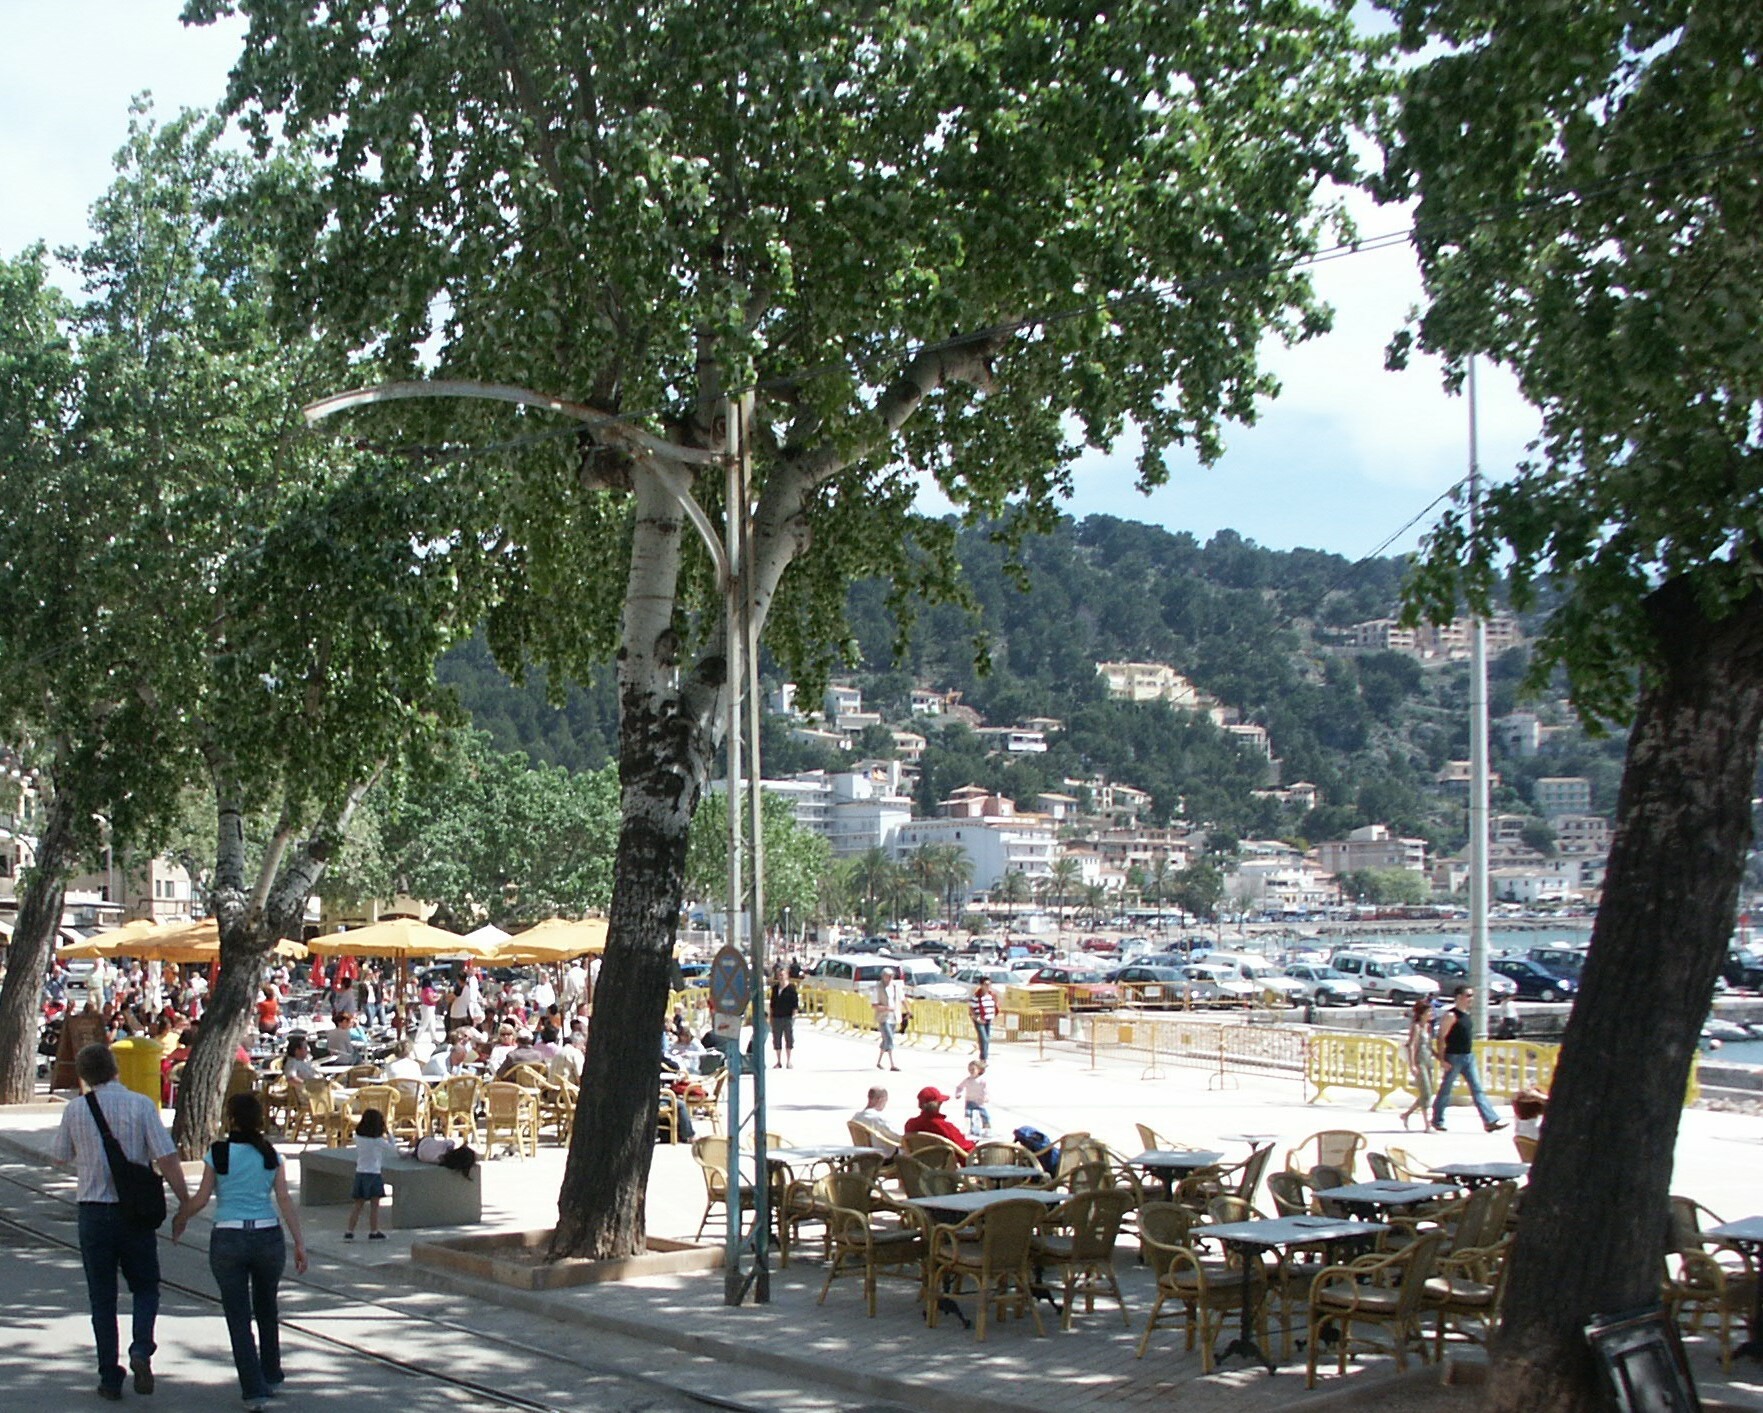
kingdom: Plantae
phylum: Tracheophyta
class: Magnoliopsida
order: Malpighiales
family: Salicaceae
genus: Populus
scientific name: Populus alba
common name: White poplar
